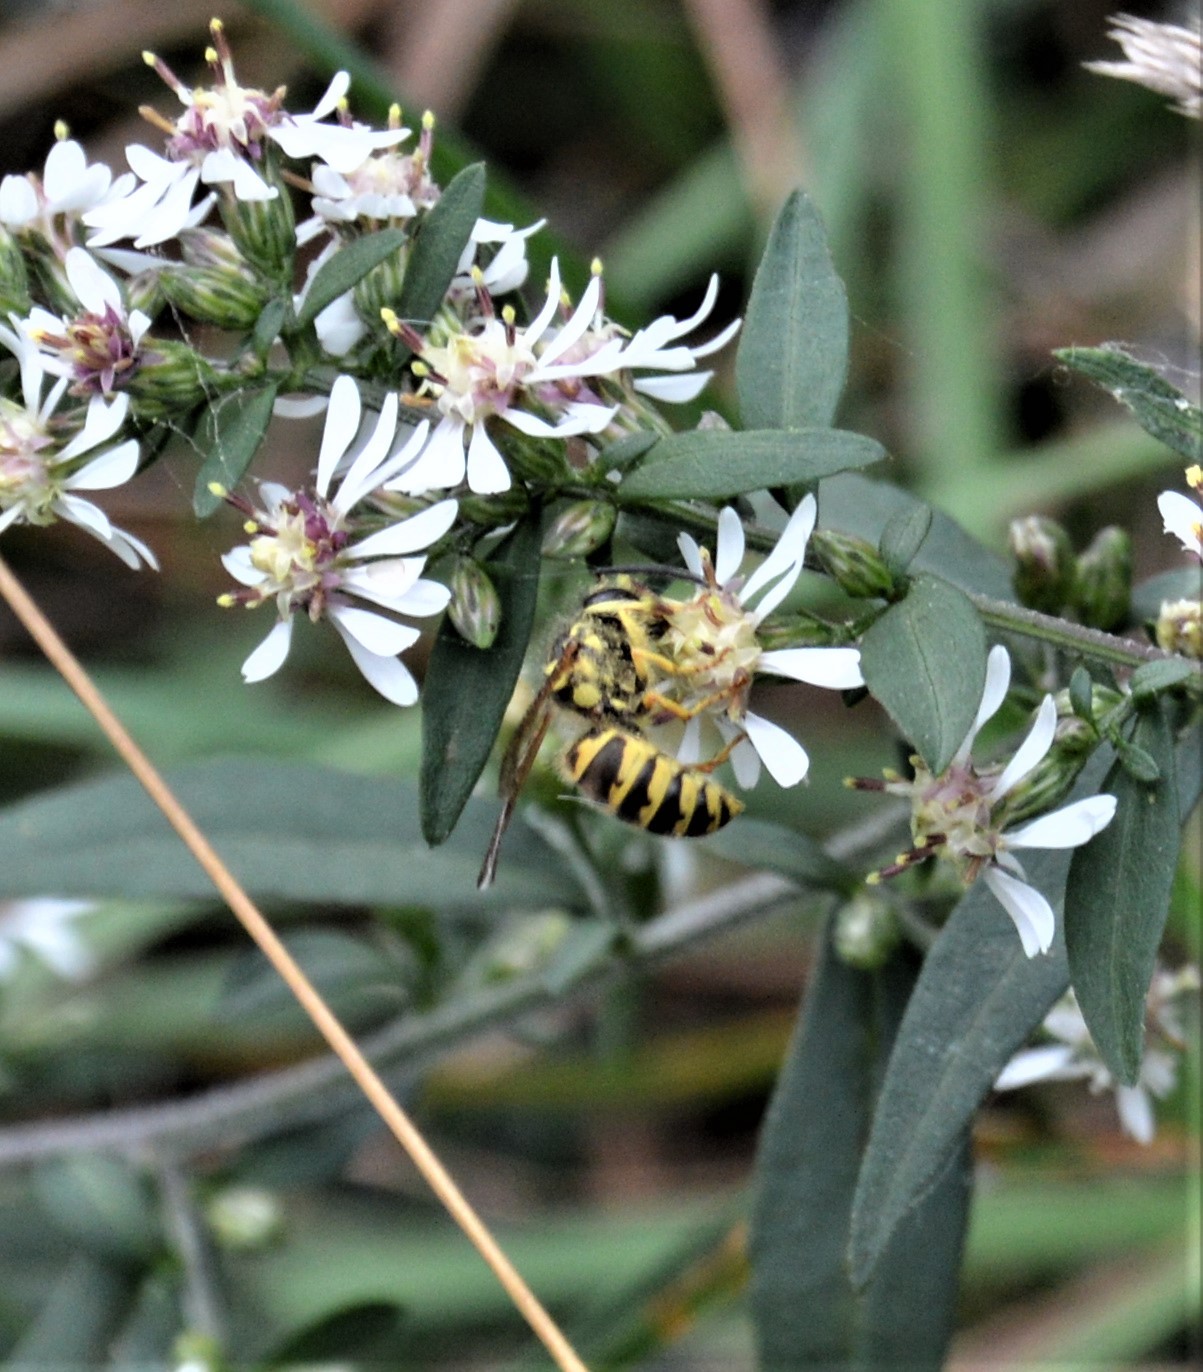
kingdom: Animalia
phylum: Arthropoda
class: Insecta
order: Hymenoptera
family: Vespidae
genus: Vespula
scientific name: Vespula flavopilosa
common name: Downy yellowjacket
